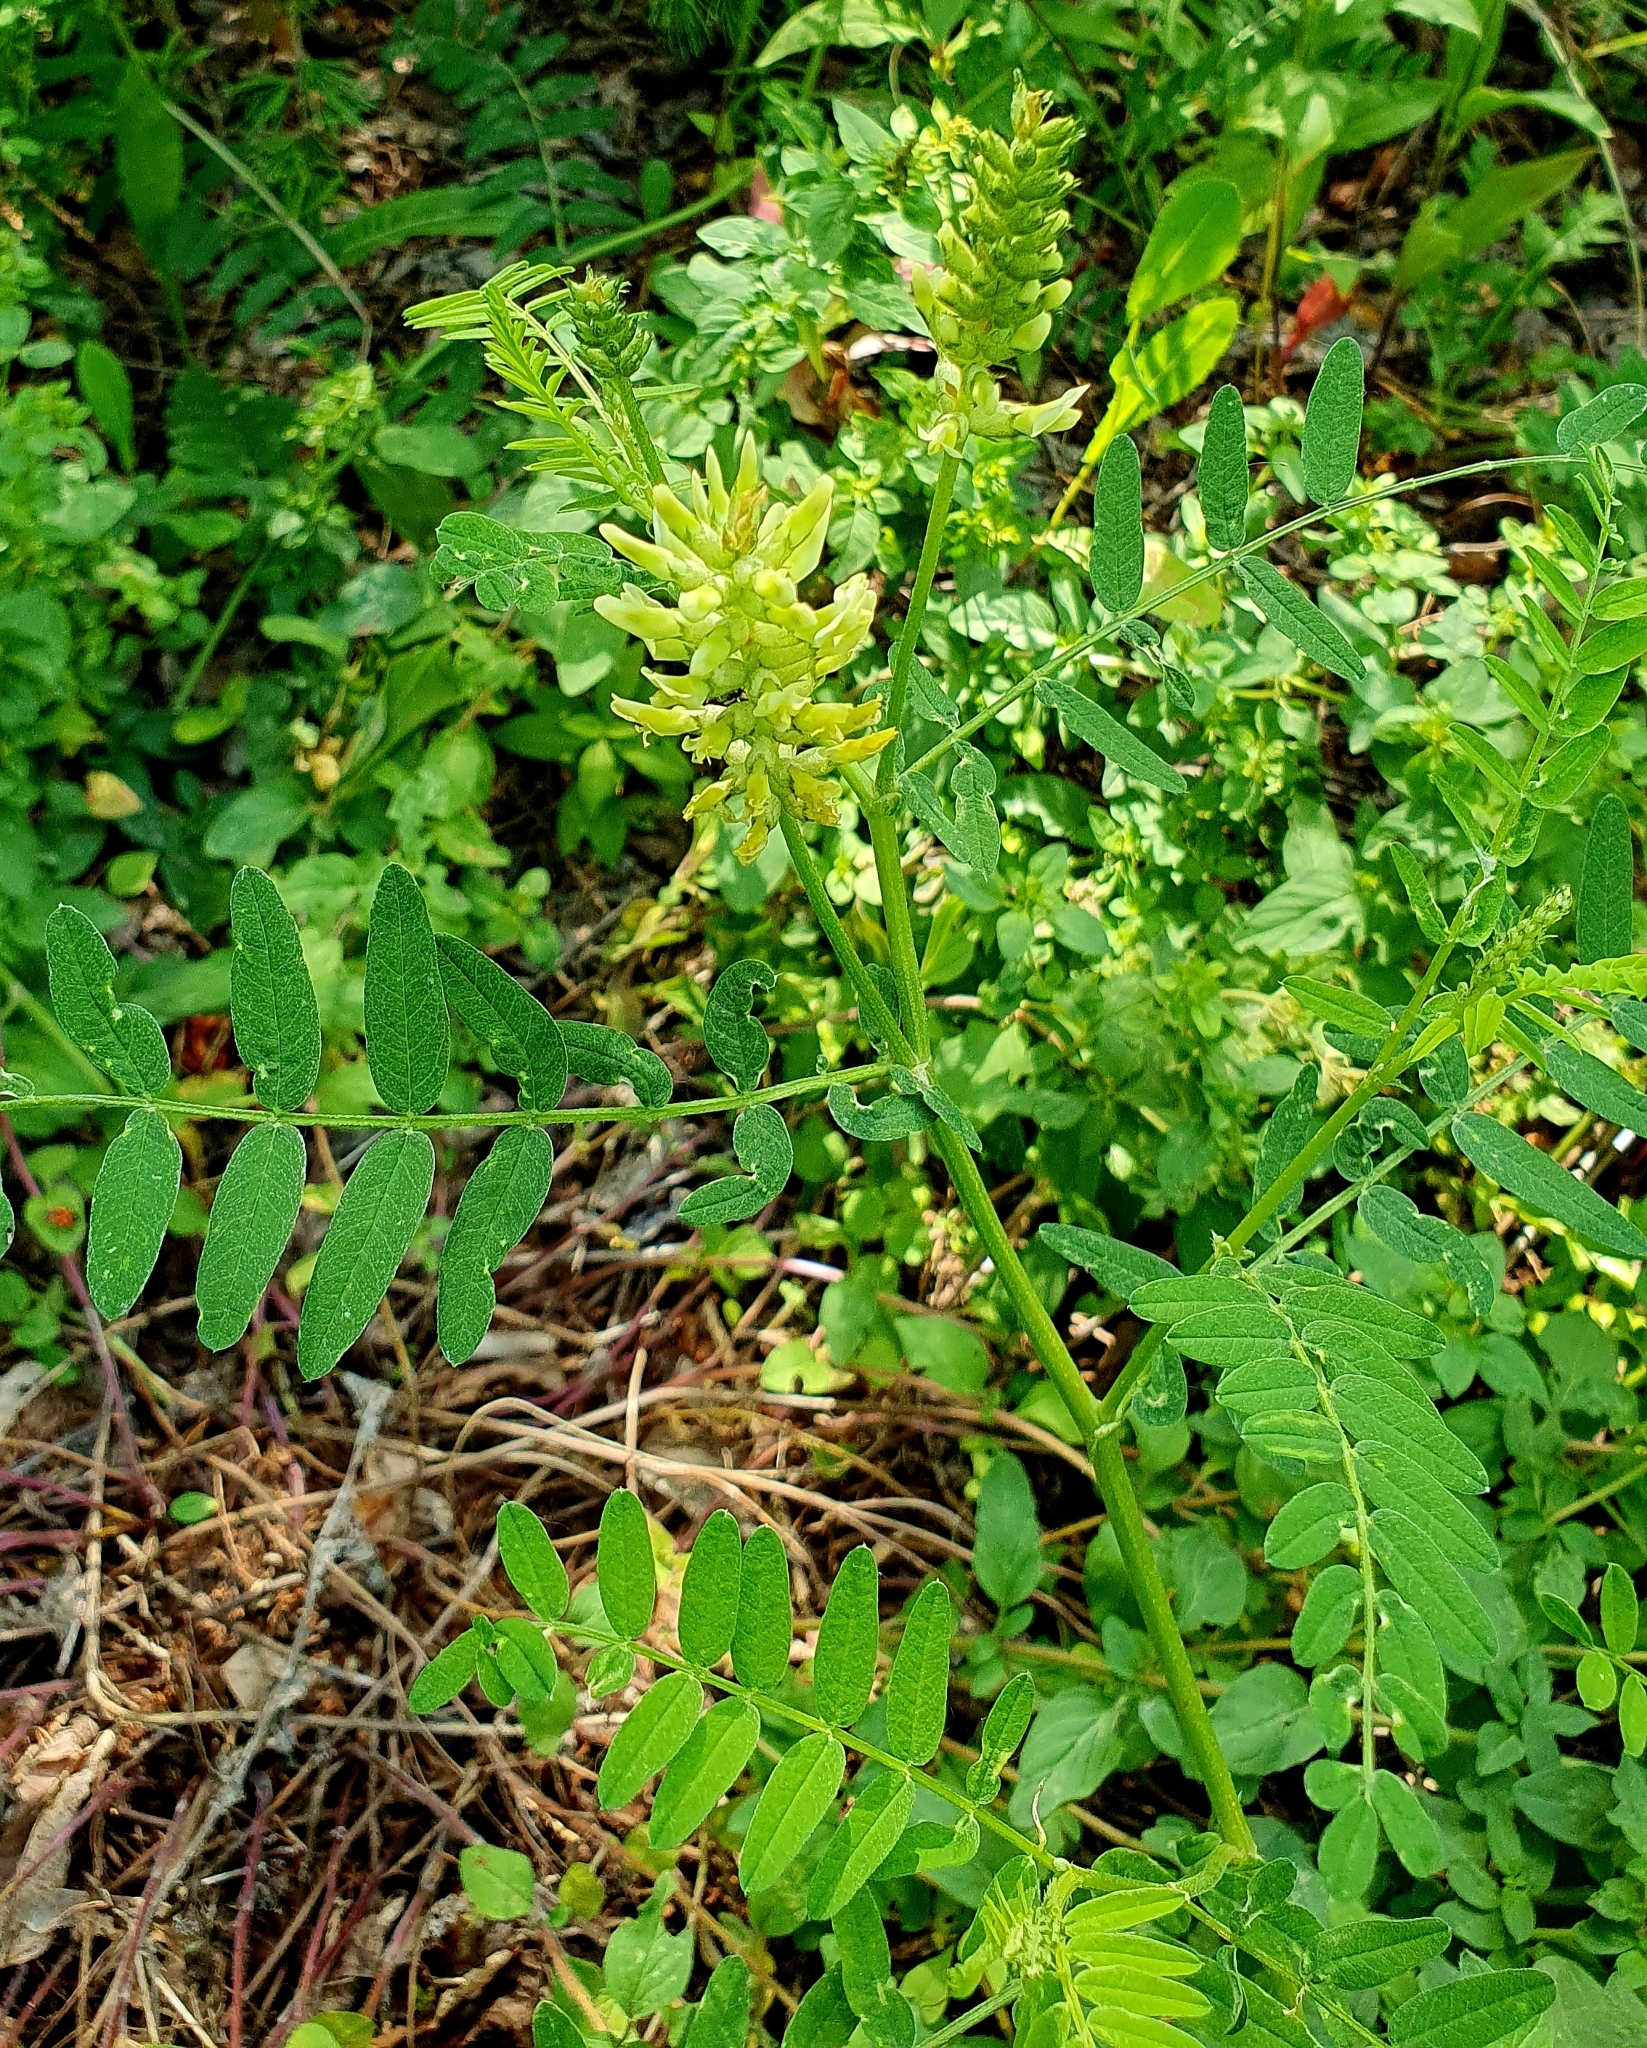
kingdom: Plantae
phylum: Tracheophyta
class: Magnoliopsida
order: Fabales
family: Fabaceae
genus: Astragalus
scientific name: Astragalus cicer
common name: Chick-pea milk-vetch
